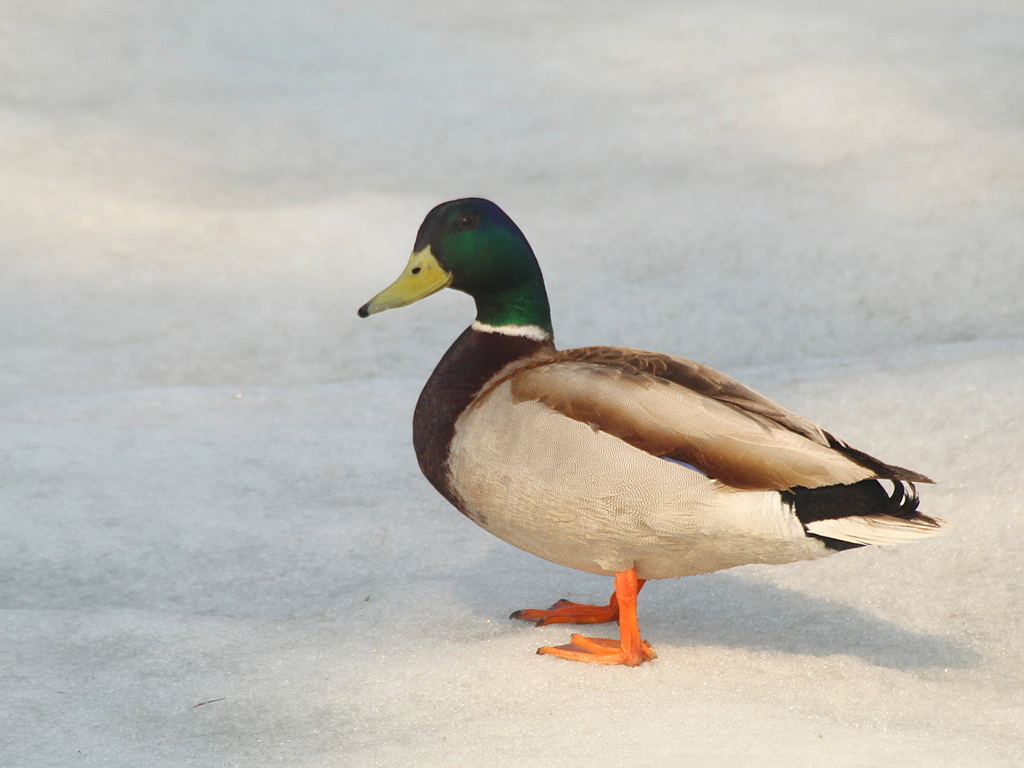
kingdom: Animalia
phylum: Chordata
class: Aves
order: Anseriformes
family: Anatidae
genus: Anas
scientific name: Anas platyrhynchos
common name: Mallard
